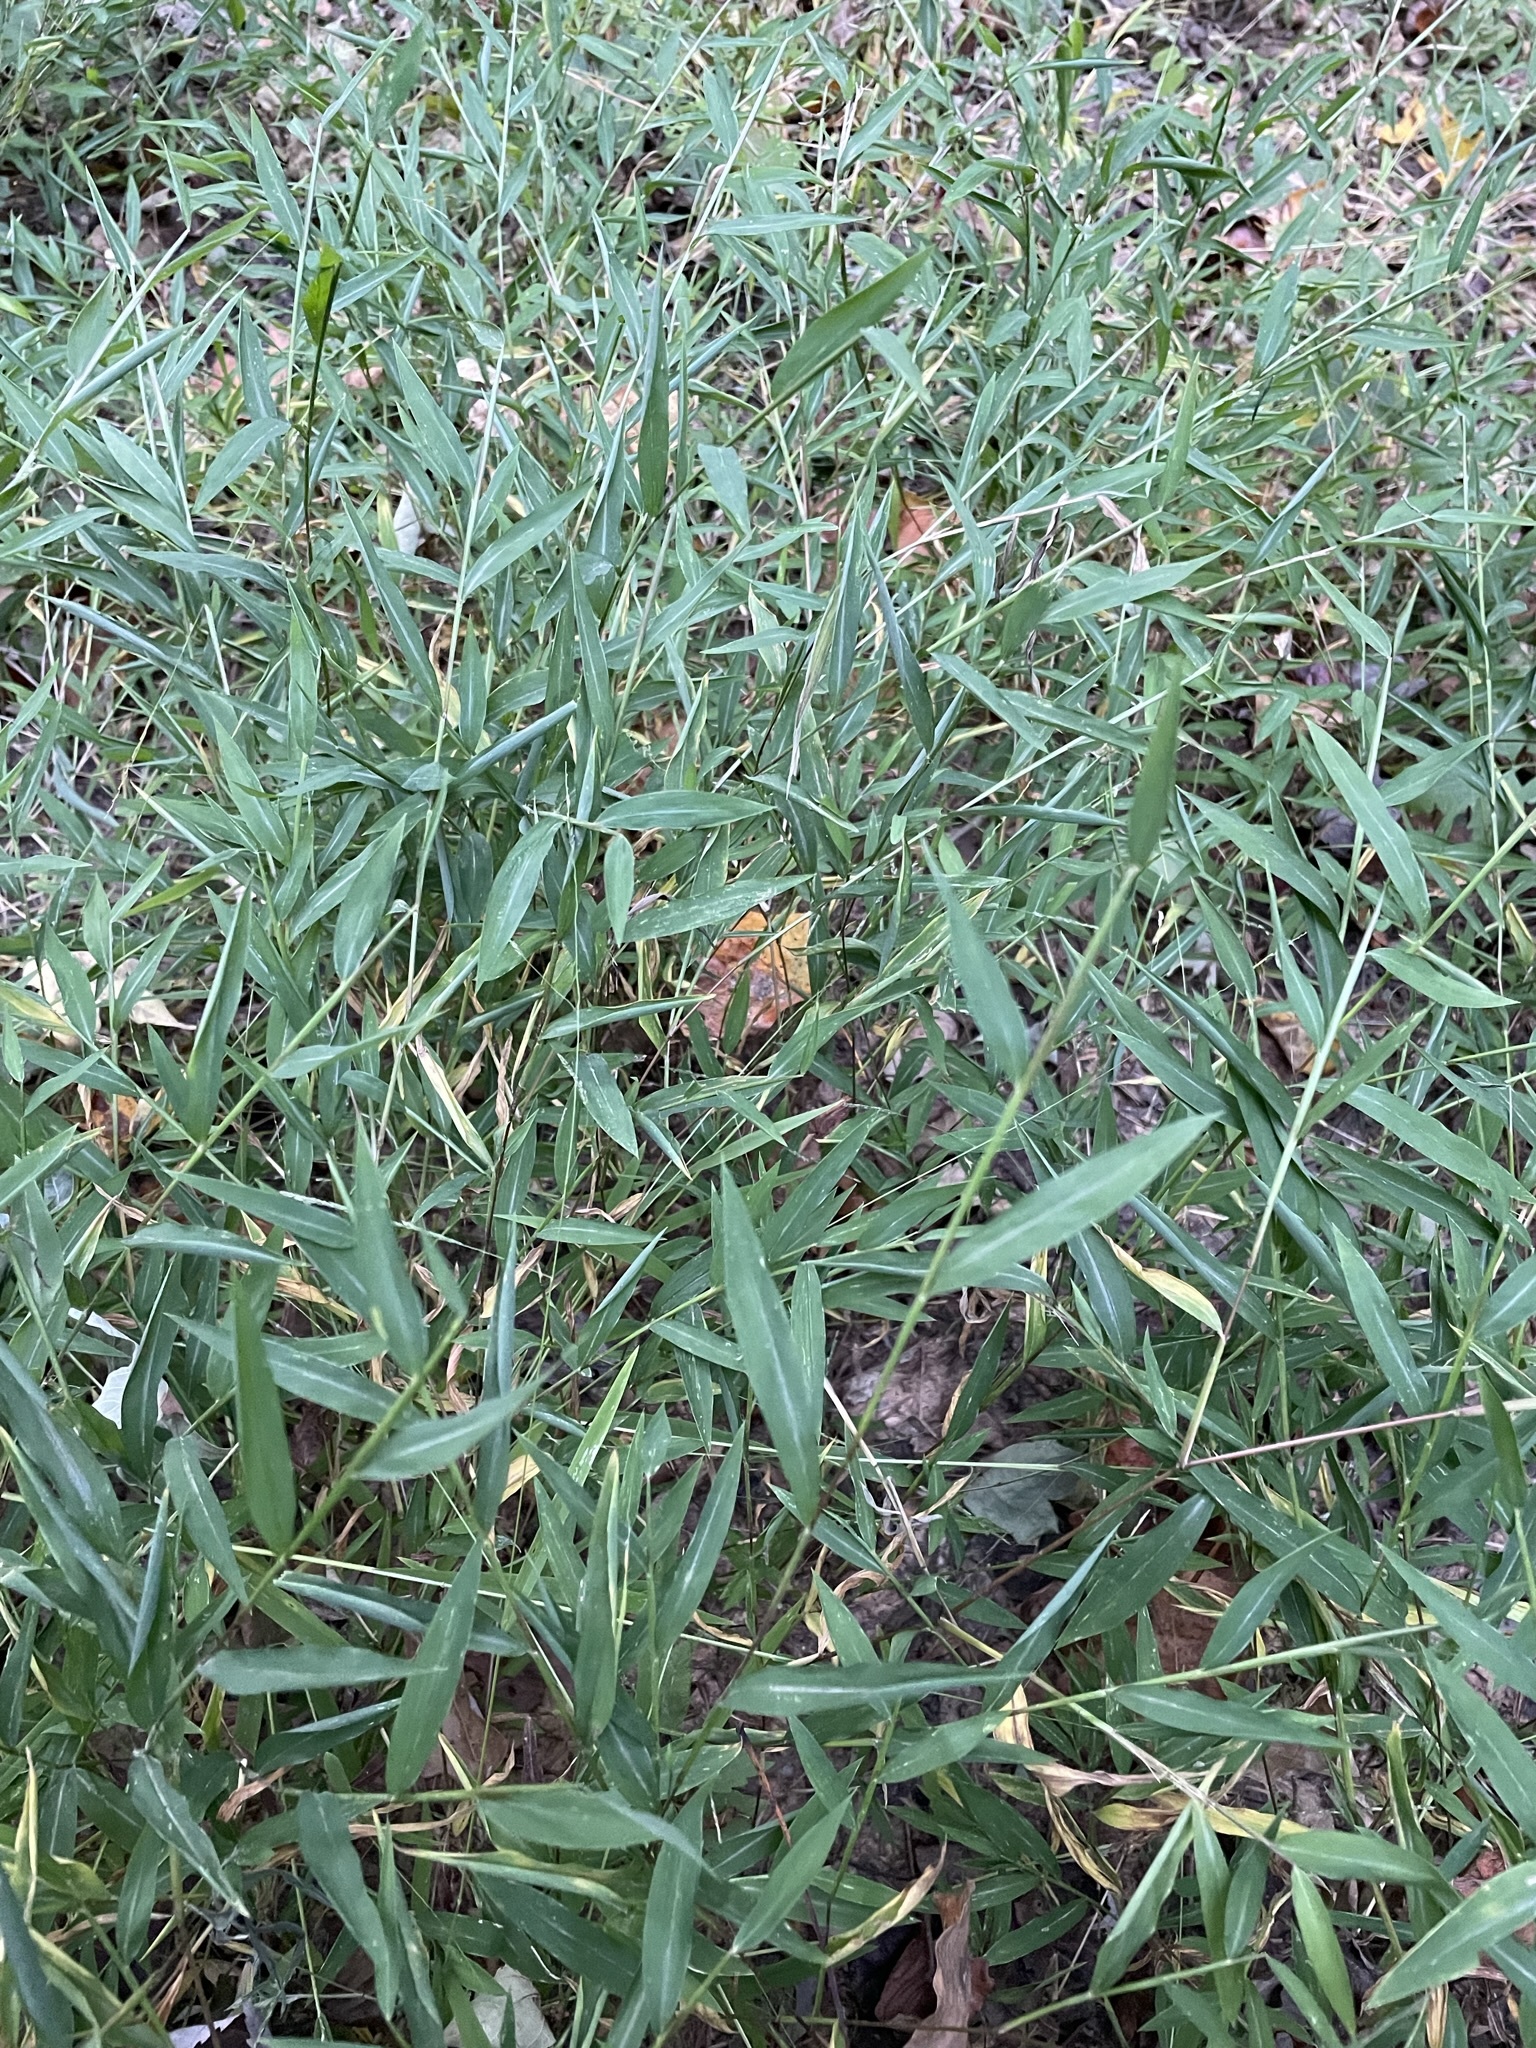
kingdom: Plantae
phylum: Tracheophyta
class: Liliopsida
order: Poales
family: Poaceae
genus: Microstegium
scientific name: Microstegium vimineum
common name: Japanese stiltgrass
